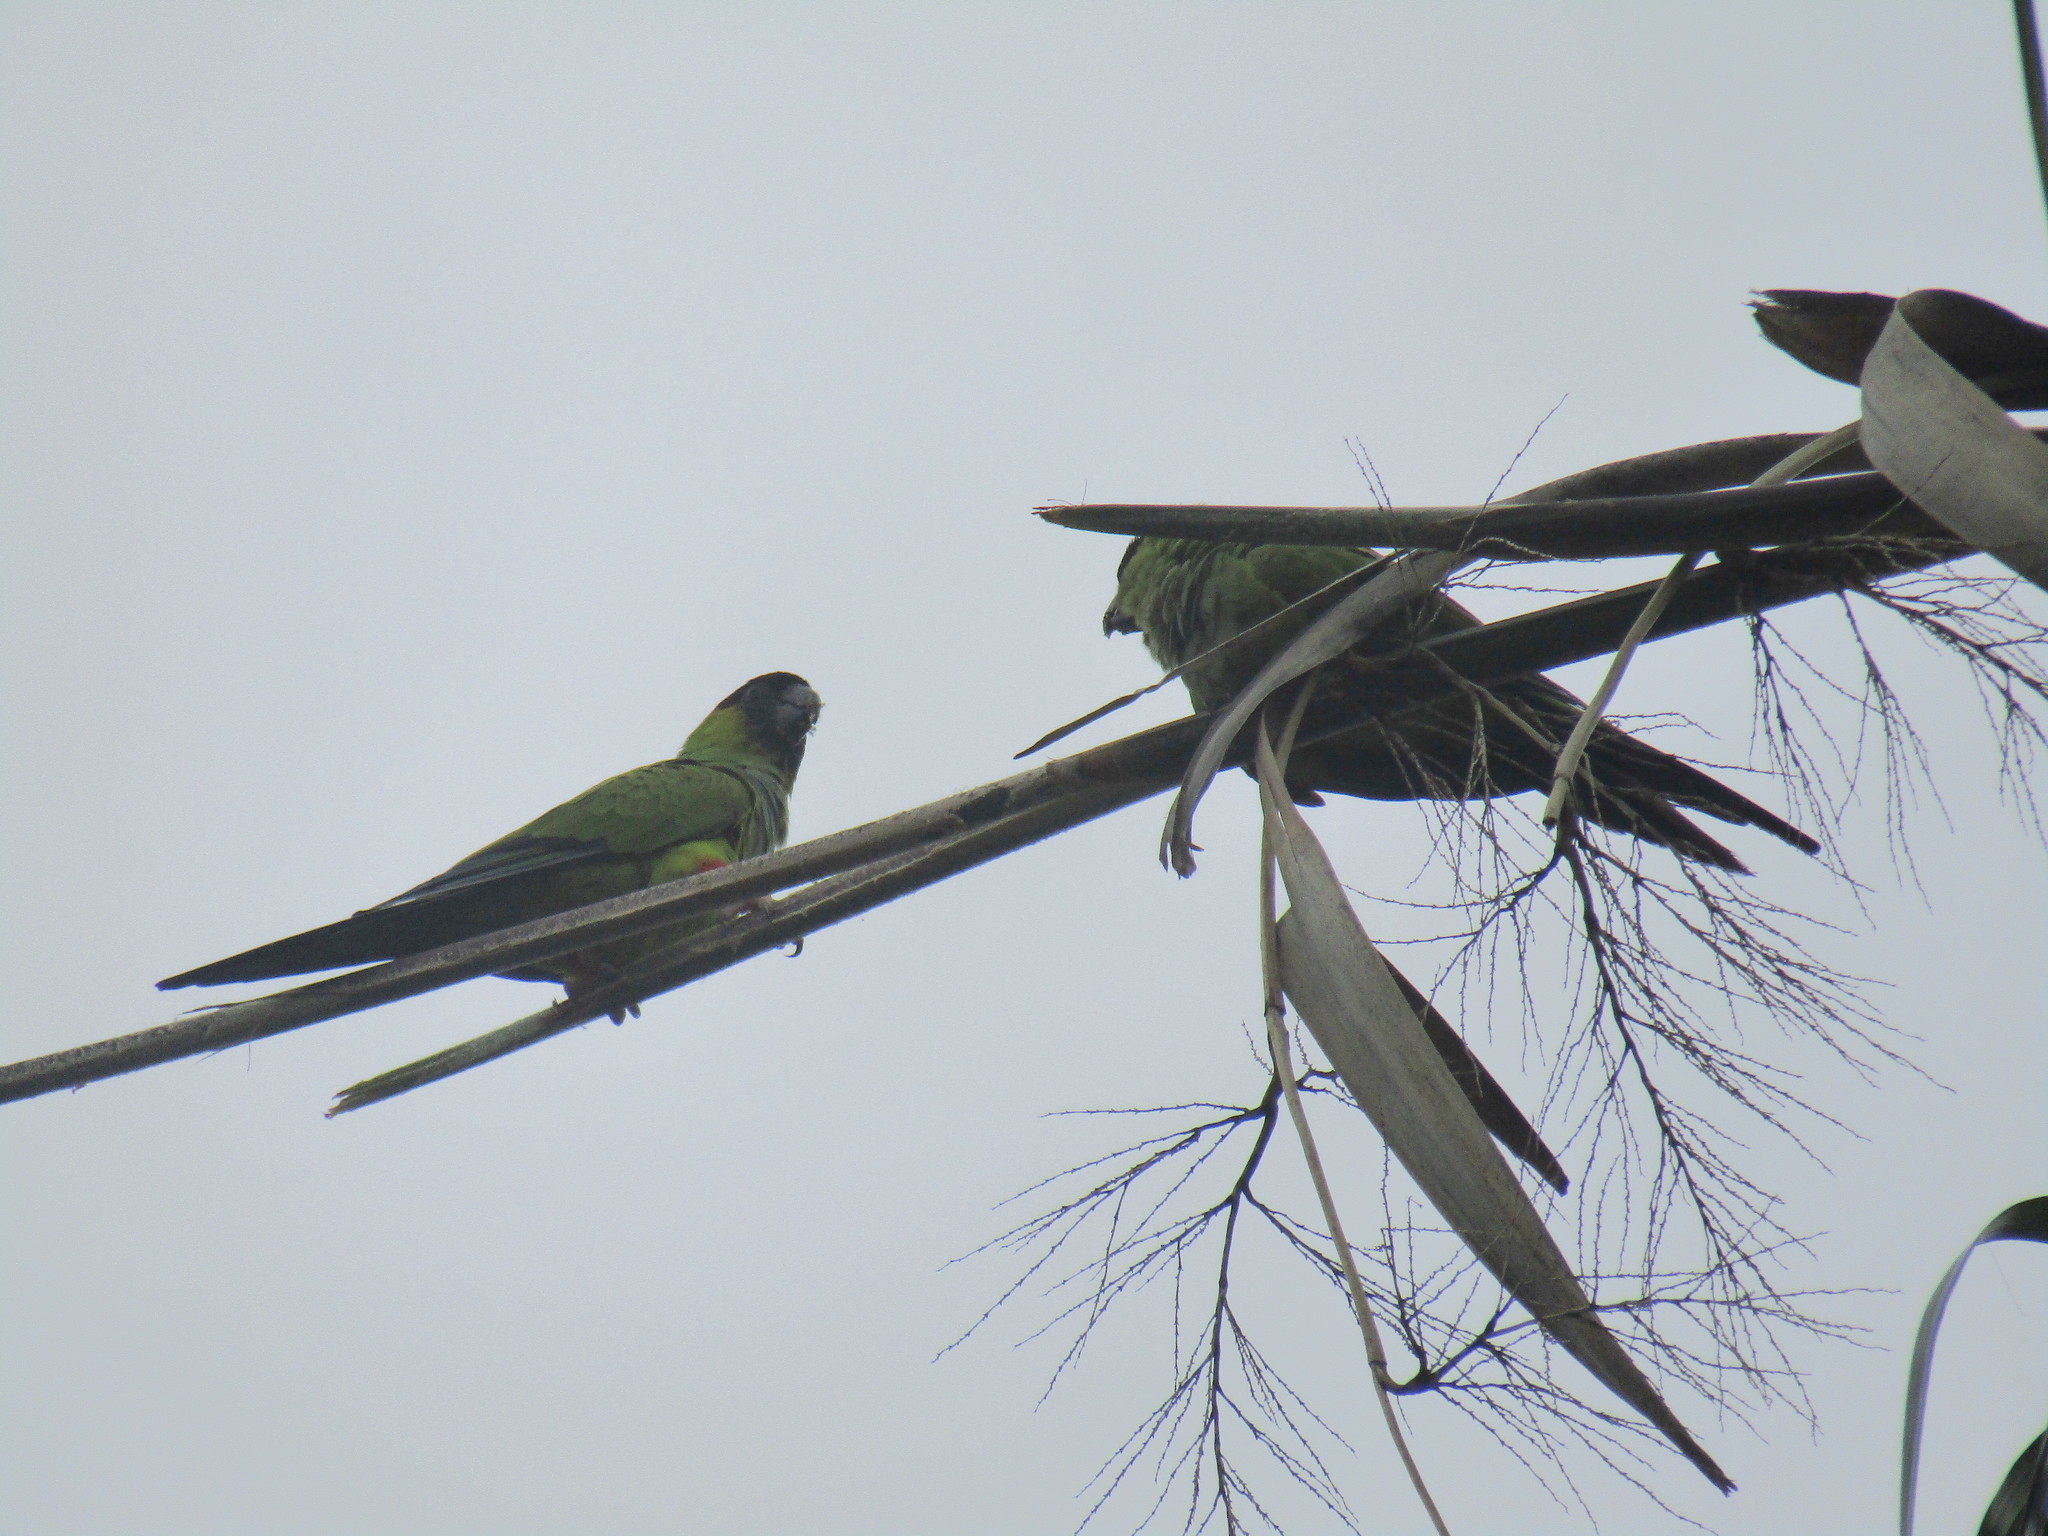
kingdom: Animalia
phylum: Chordata
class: Aves
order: Psittaciformes
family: Psittacidae
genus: Nandayus
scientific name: Nandayus nenday
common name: Nanday parakeet
